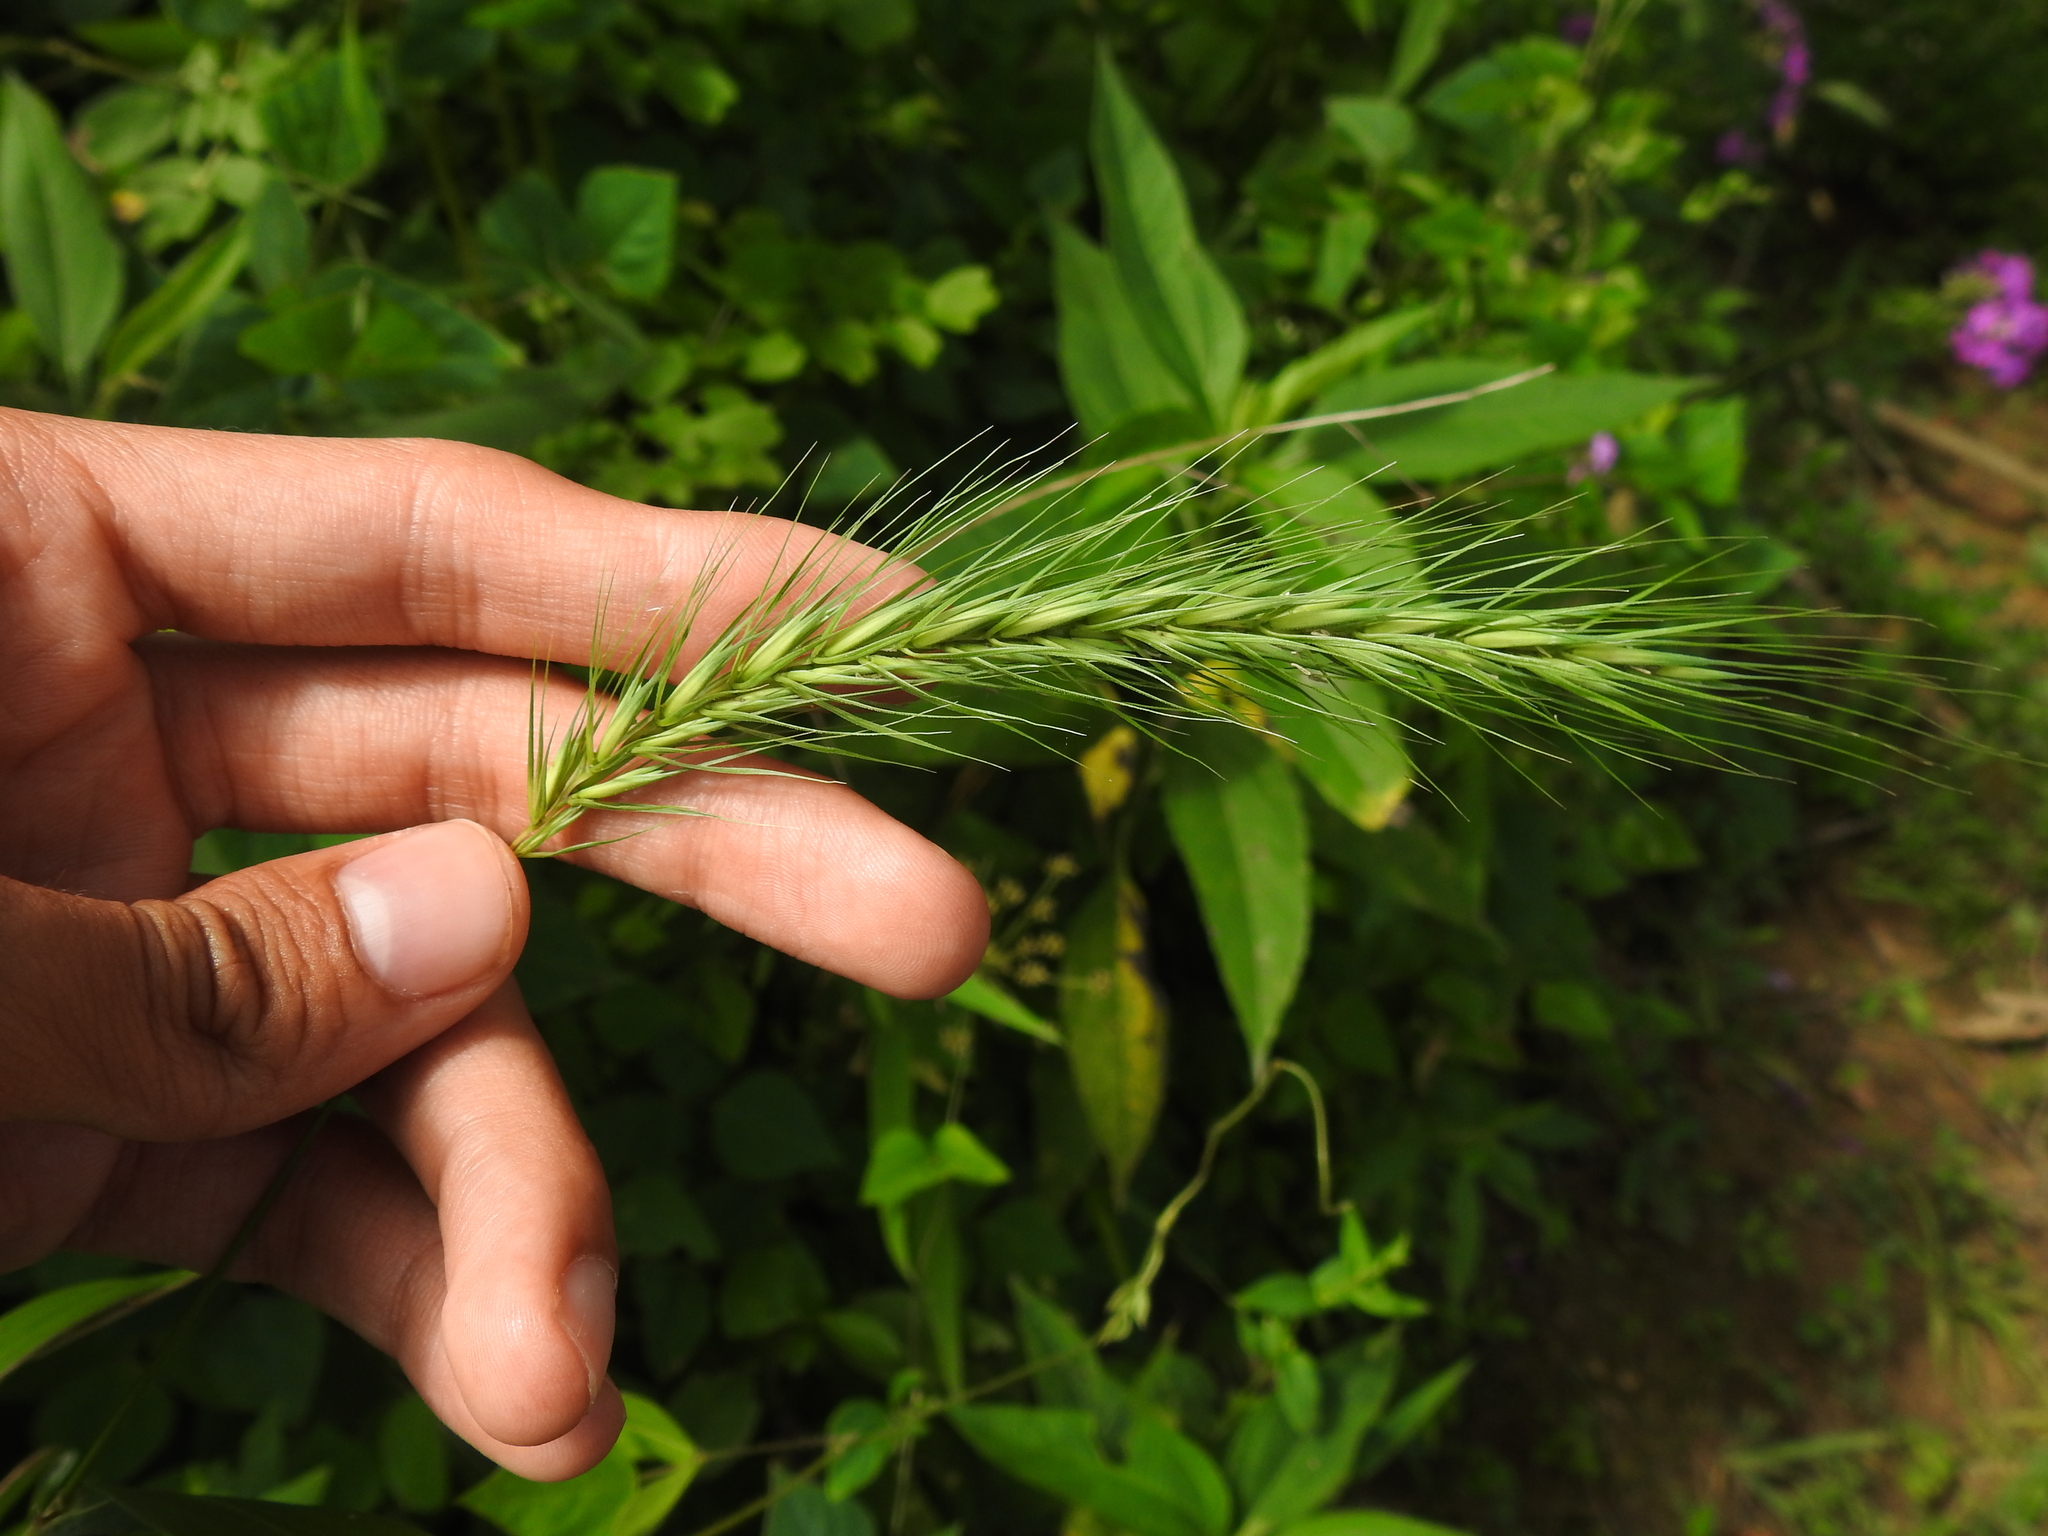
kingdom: Plantae
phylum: Tracheophyta
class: Liliopsida
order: Poales
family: Poaceae
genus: Elymus
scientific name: Elymus riparius
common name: Eastern riverbank wild rye
